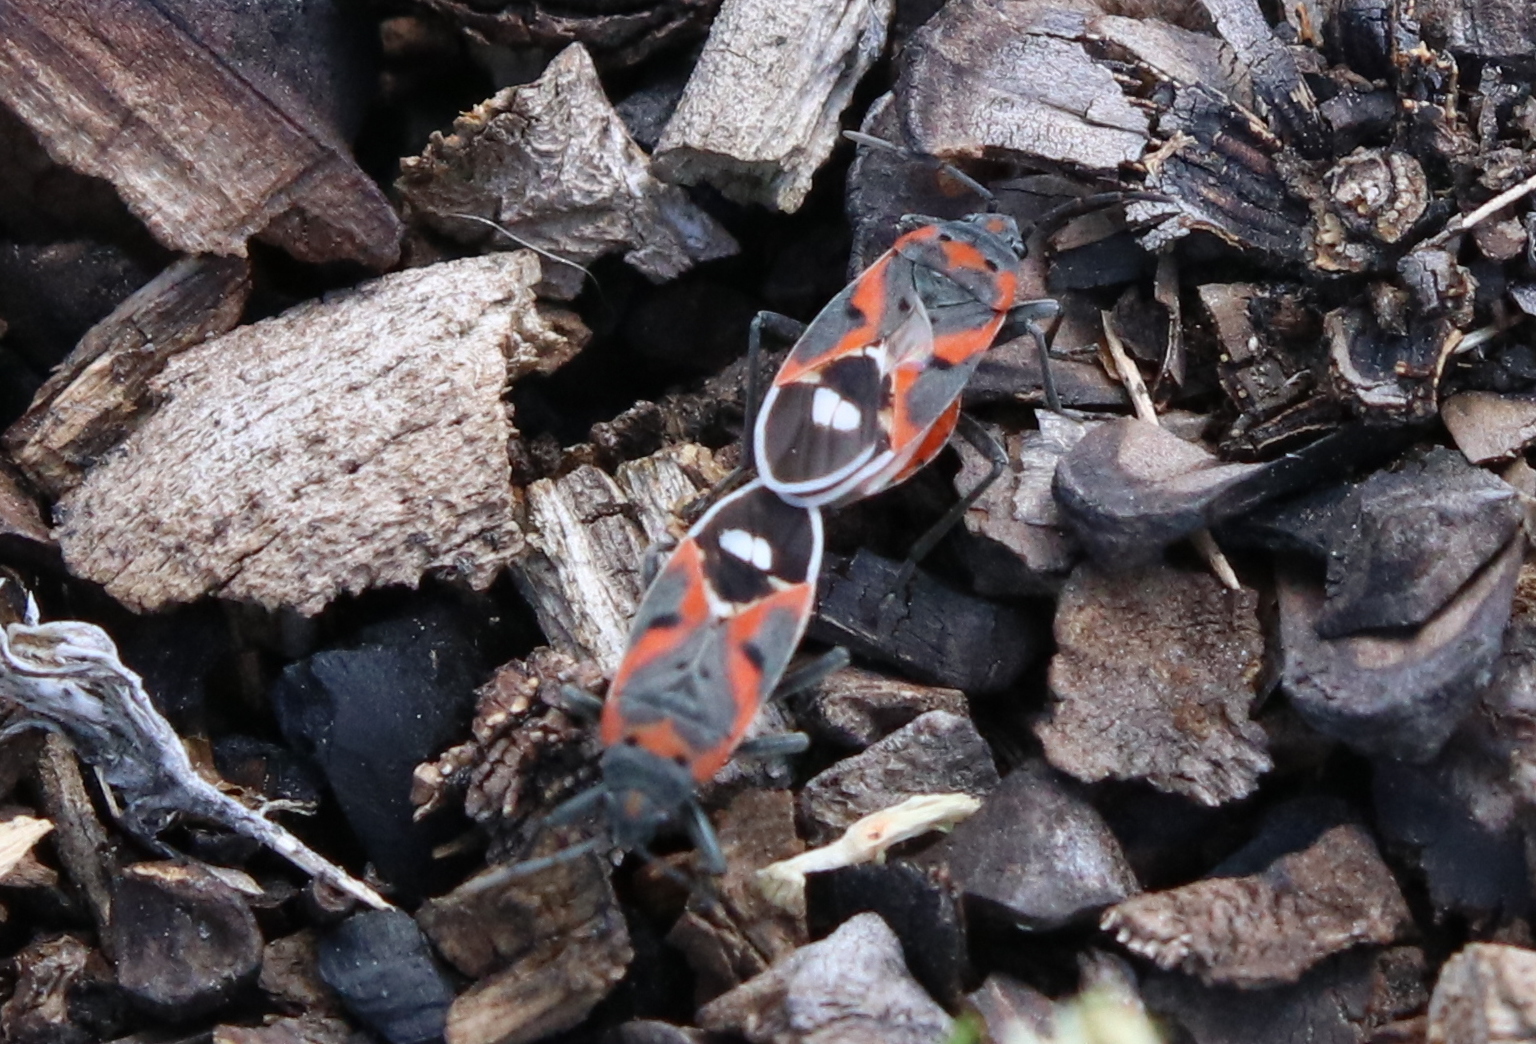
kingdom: Animalia
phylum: Arthropoda
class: Insecta
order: Hemiptera
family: Lygaeidae
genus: Lygaeus
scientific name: Lygaeus kalmii
